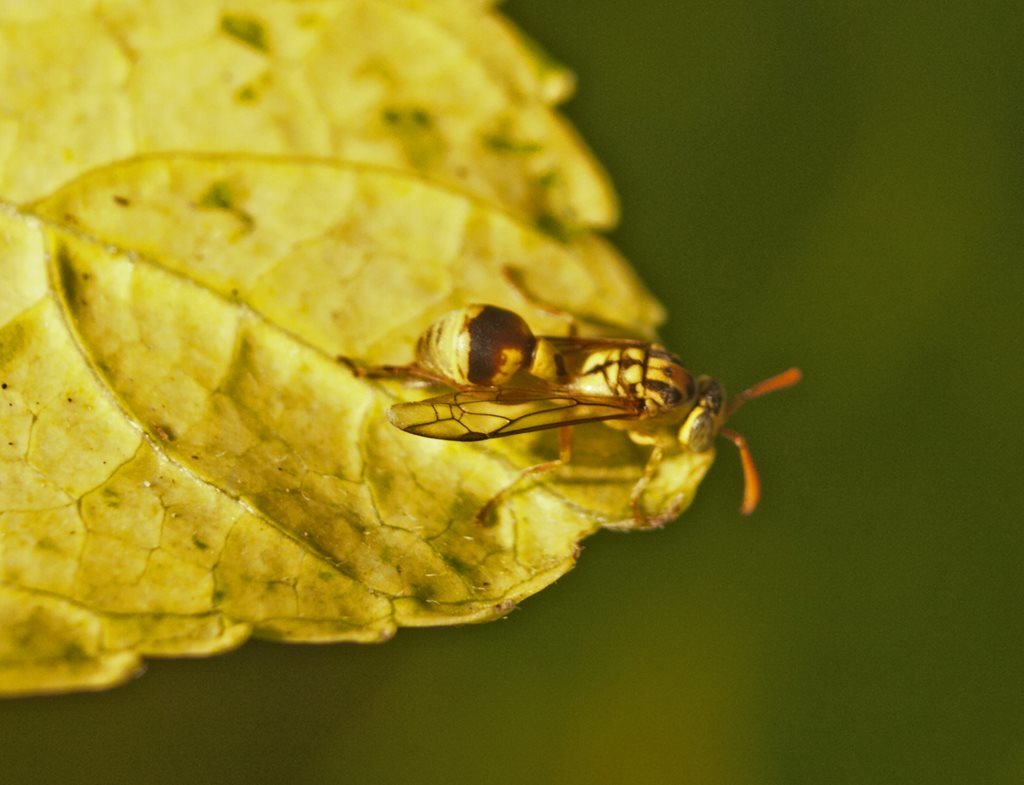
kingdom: Animalia
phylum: Arthropoda
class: Insecta
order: Hymenoptera
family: Vespidae
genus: Ropalidia
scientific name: Ropalidia romandi
